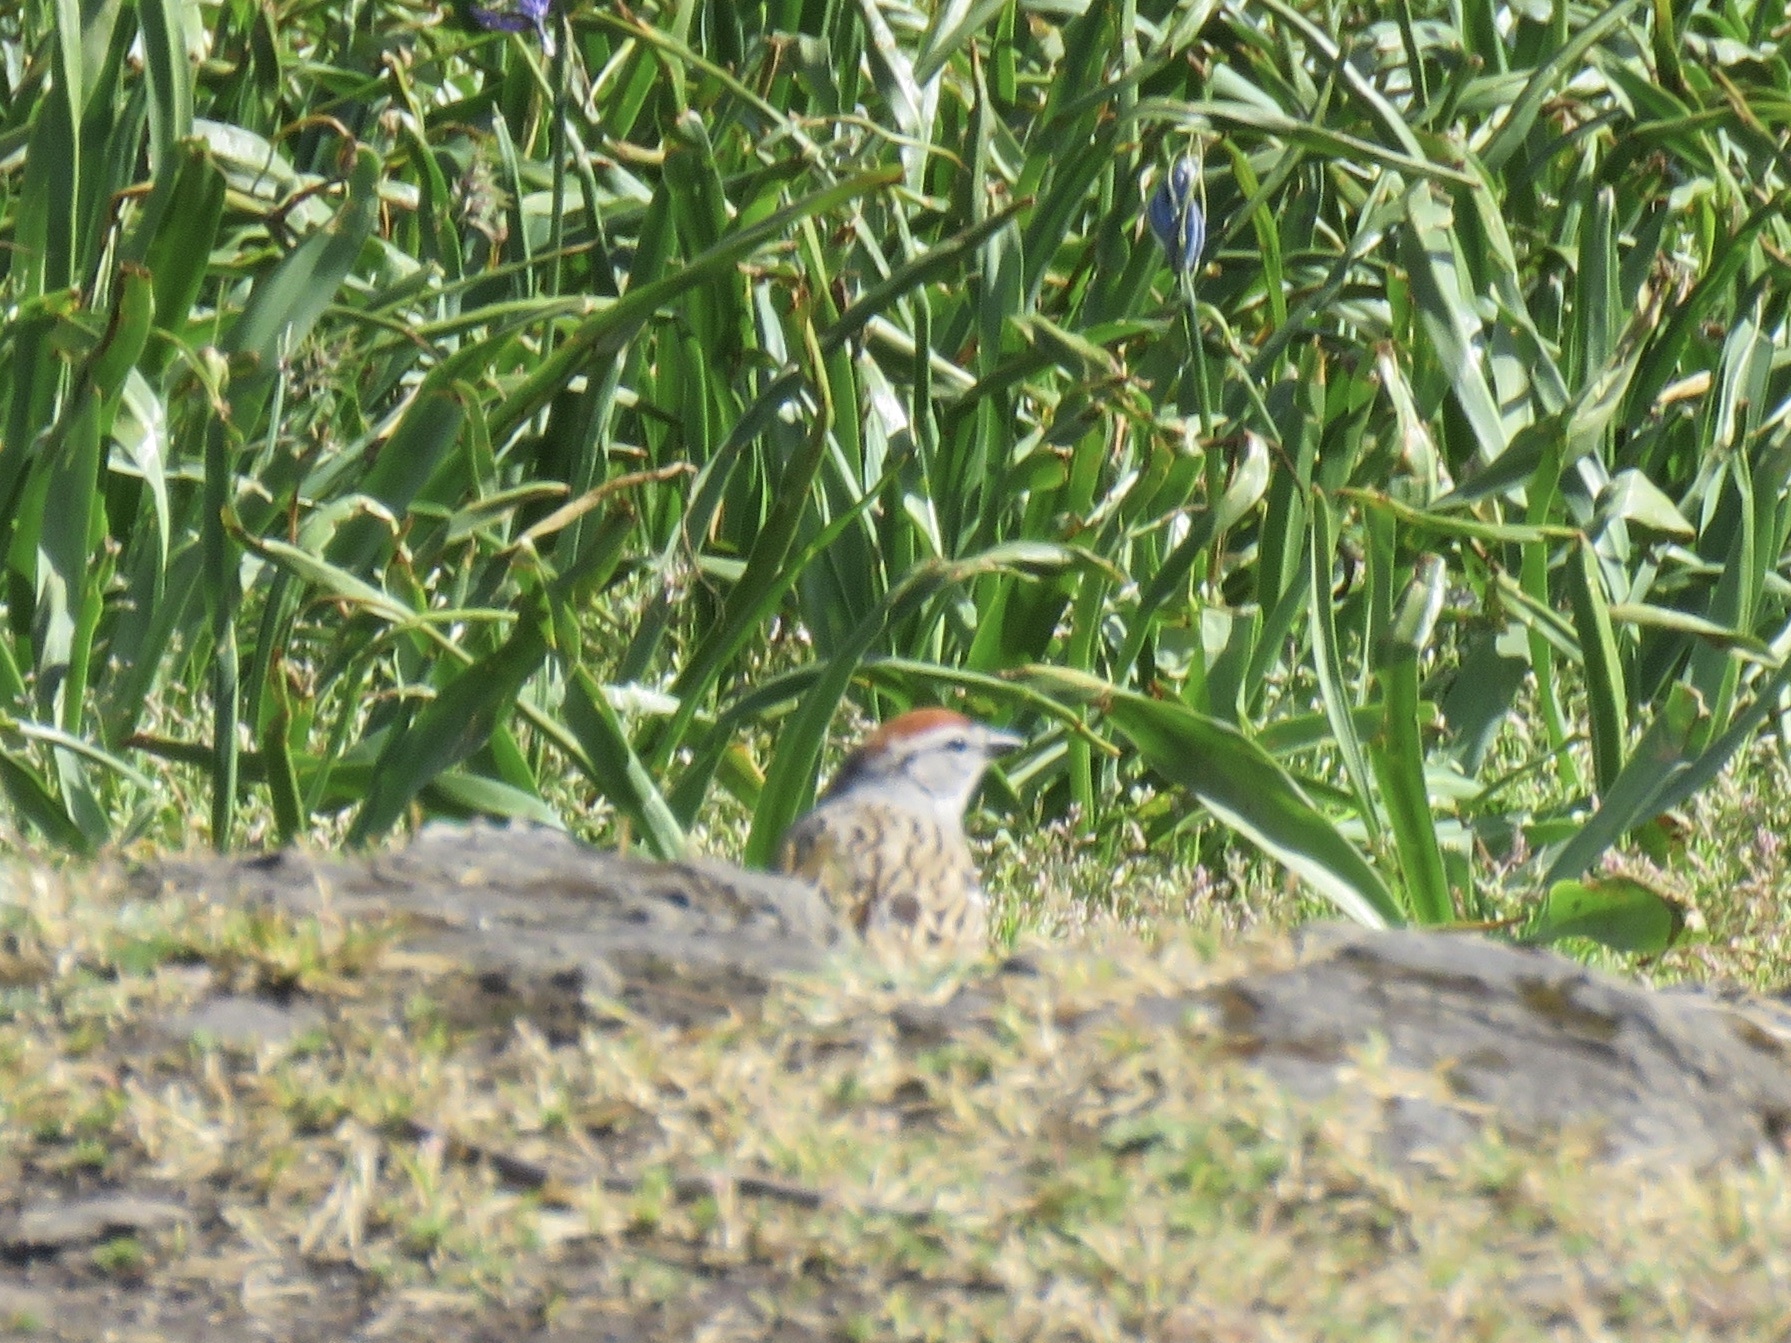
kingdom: Animalia
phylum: Chordata
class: Aves
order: Passeriformes
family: Passerellidae
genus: Spizella
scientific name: Spizella passerina
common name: Chipping sparrow
